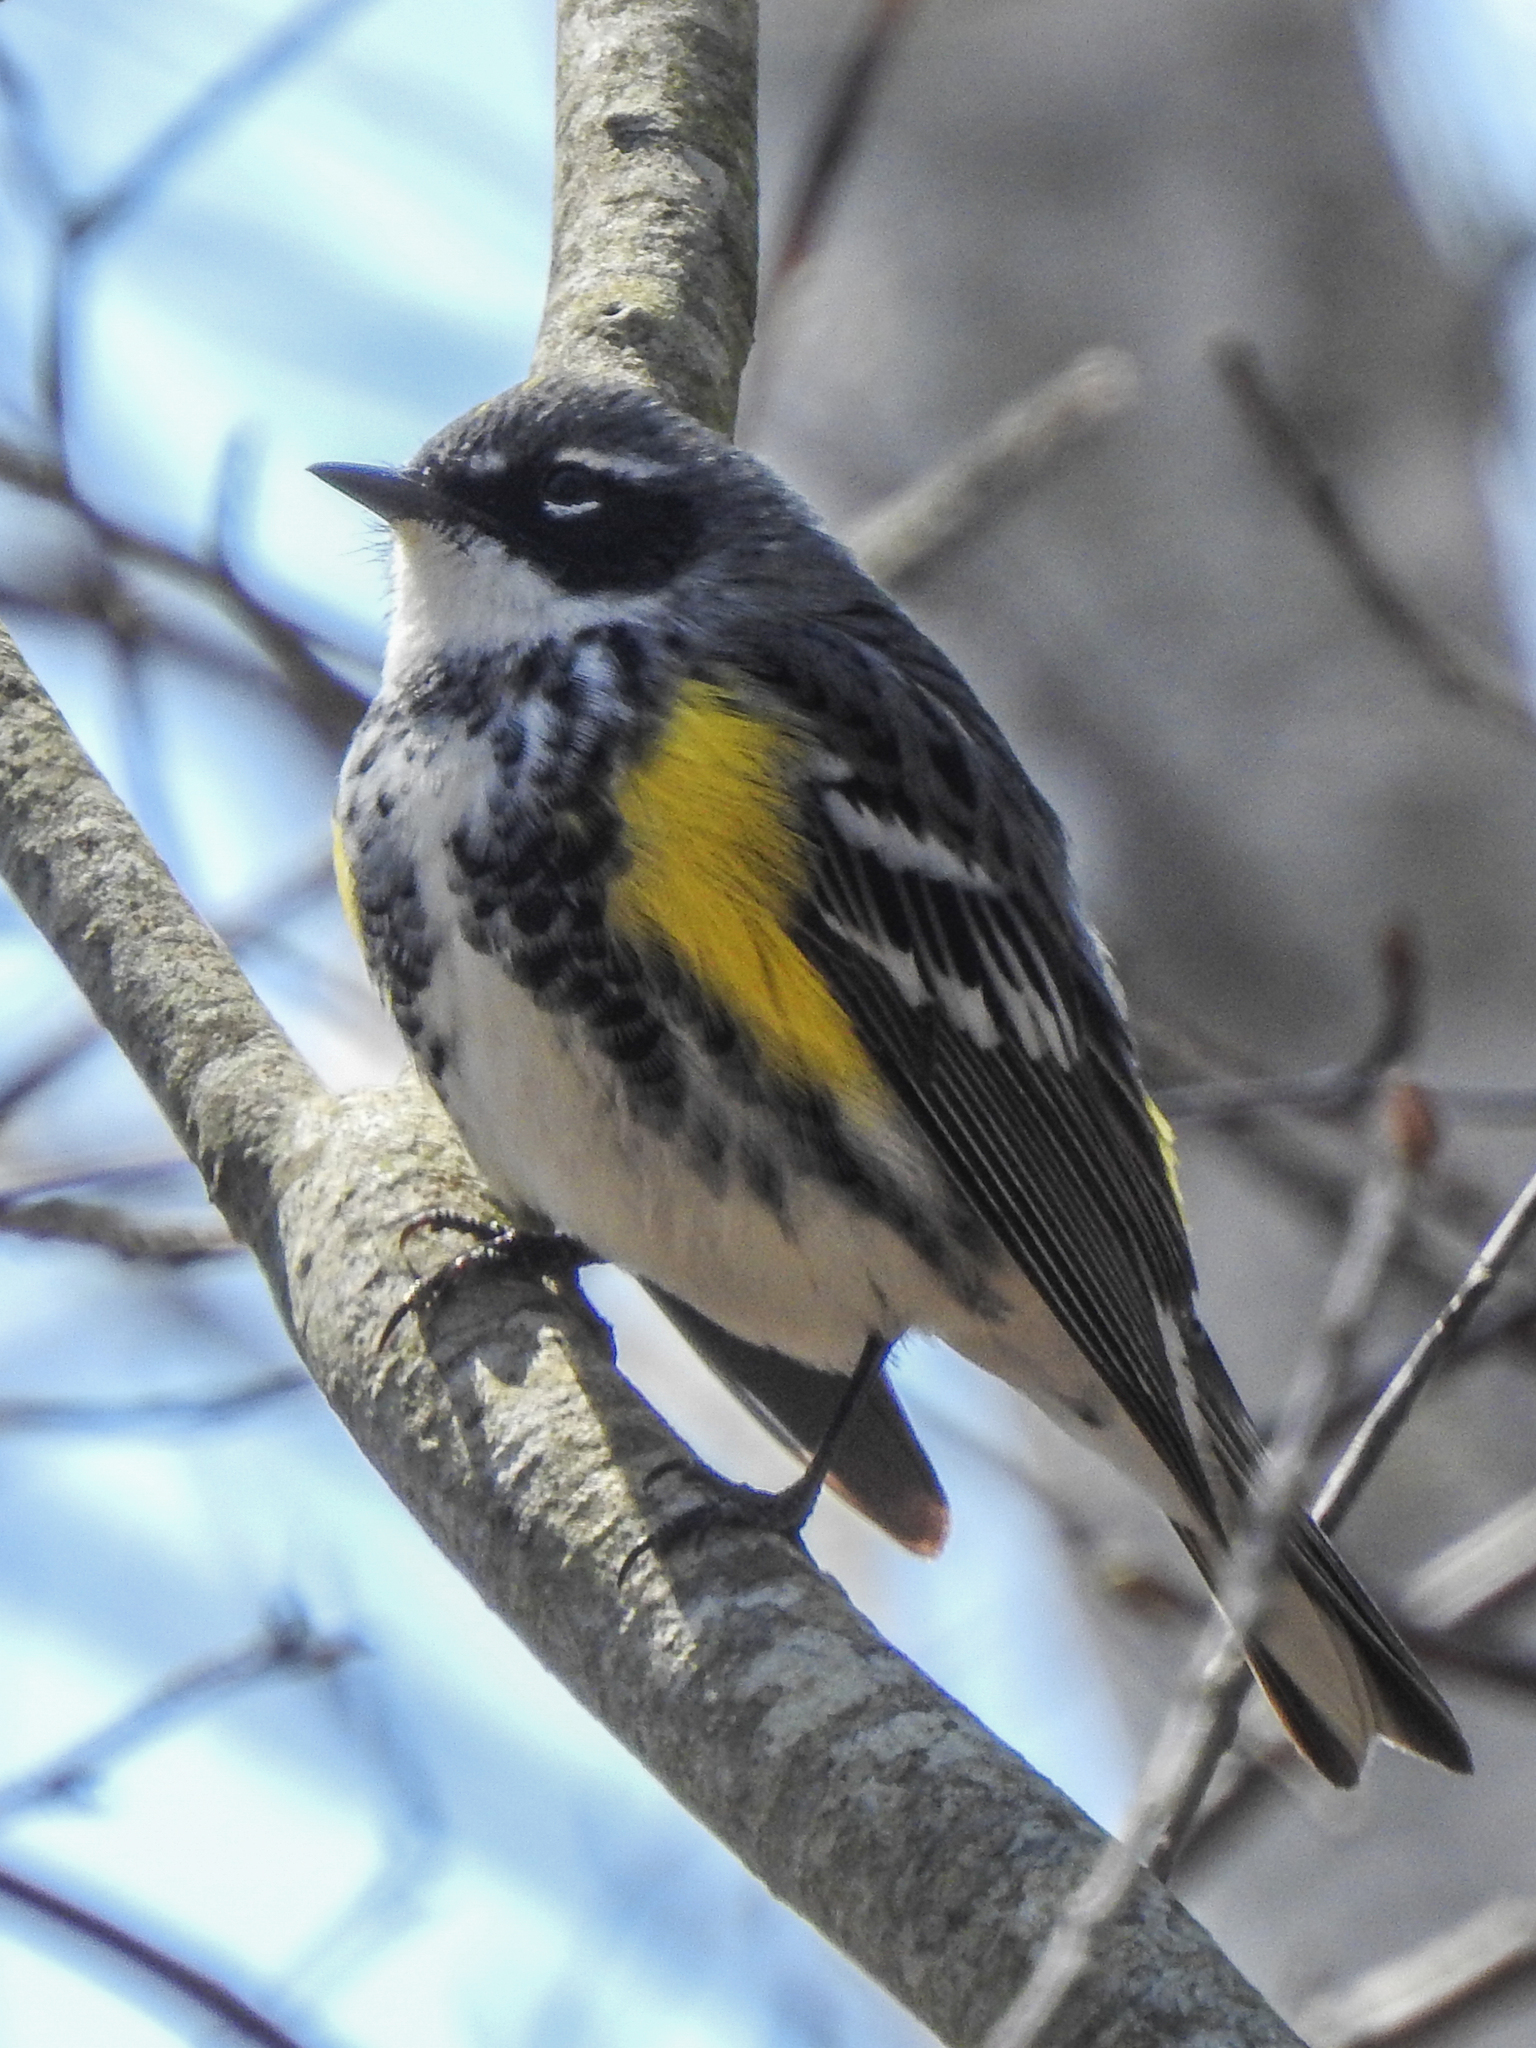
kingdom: Animalia
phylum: Chordata
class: Aves
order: Passeriformes
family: Parulidae
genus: Setophaga
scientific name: Setophaga coronata
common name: Myrtle warbler
